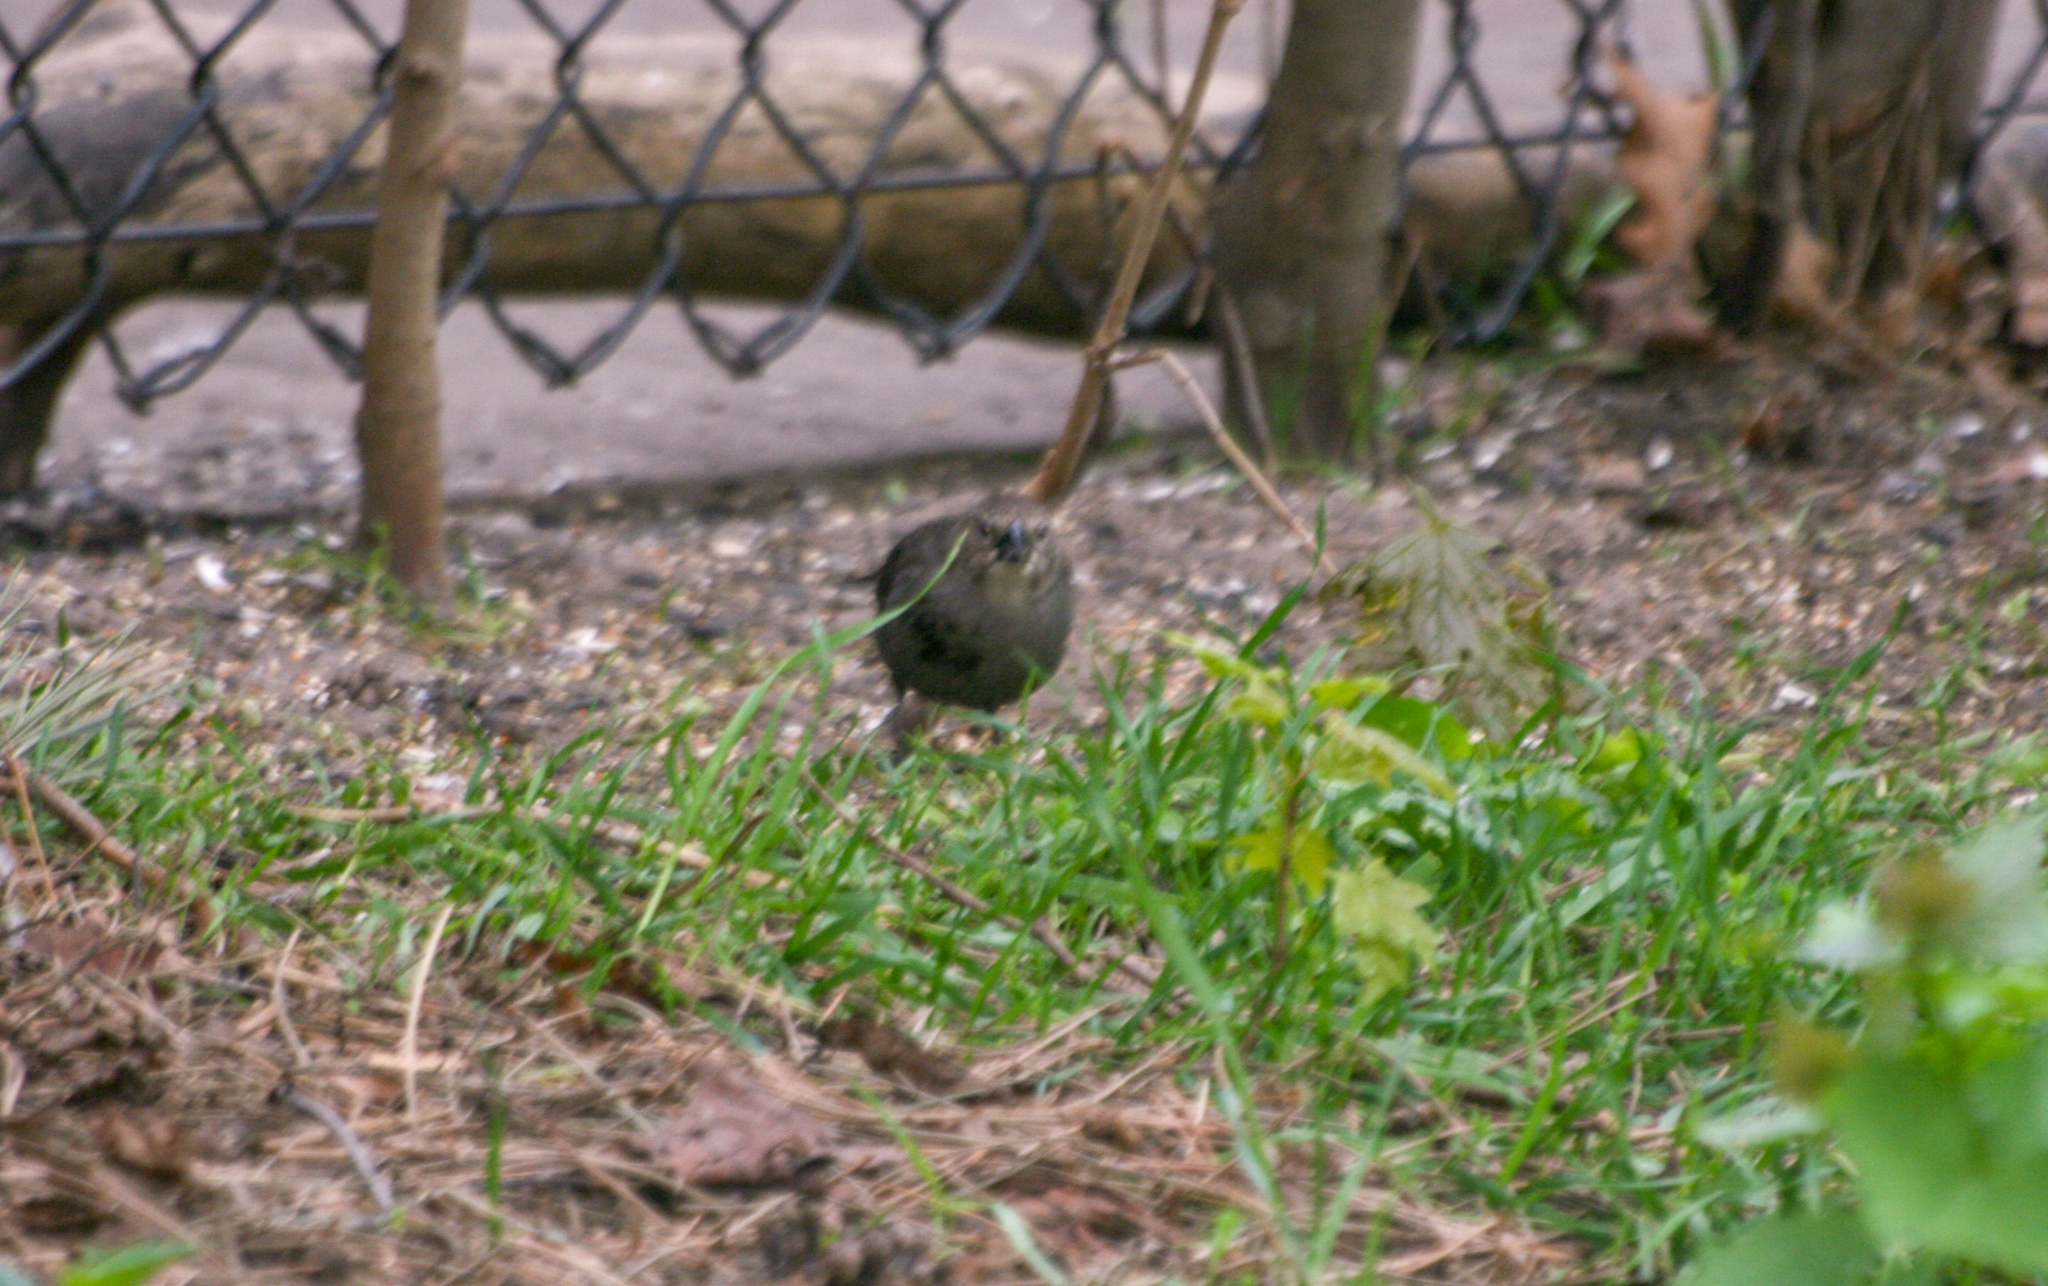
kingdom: Animalia
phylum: Chordata
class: Aves
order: Passeriformes
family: Icteridae
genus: Molothrus
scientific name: Molothrus ater
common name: Brown-headed cowbird
